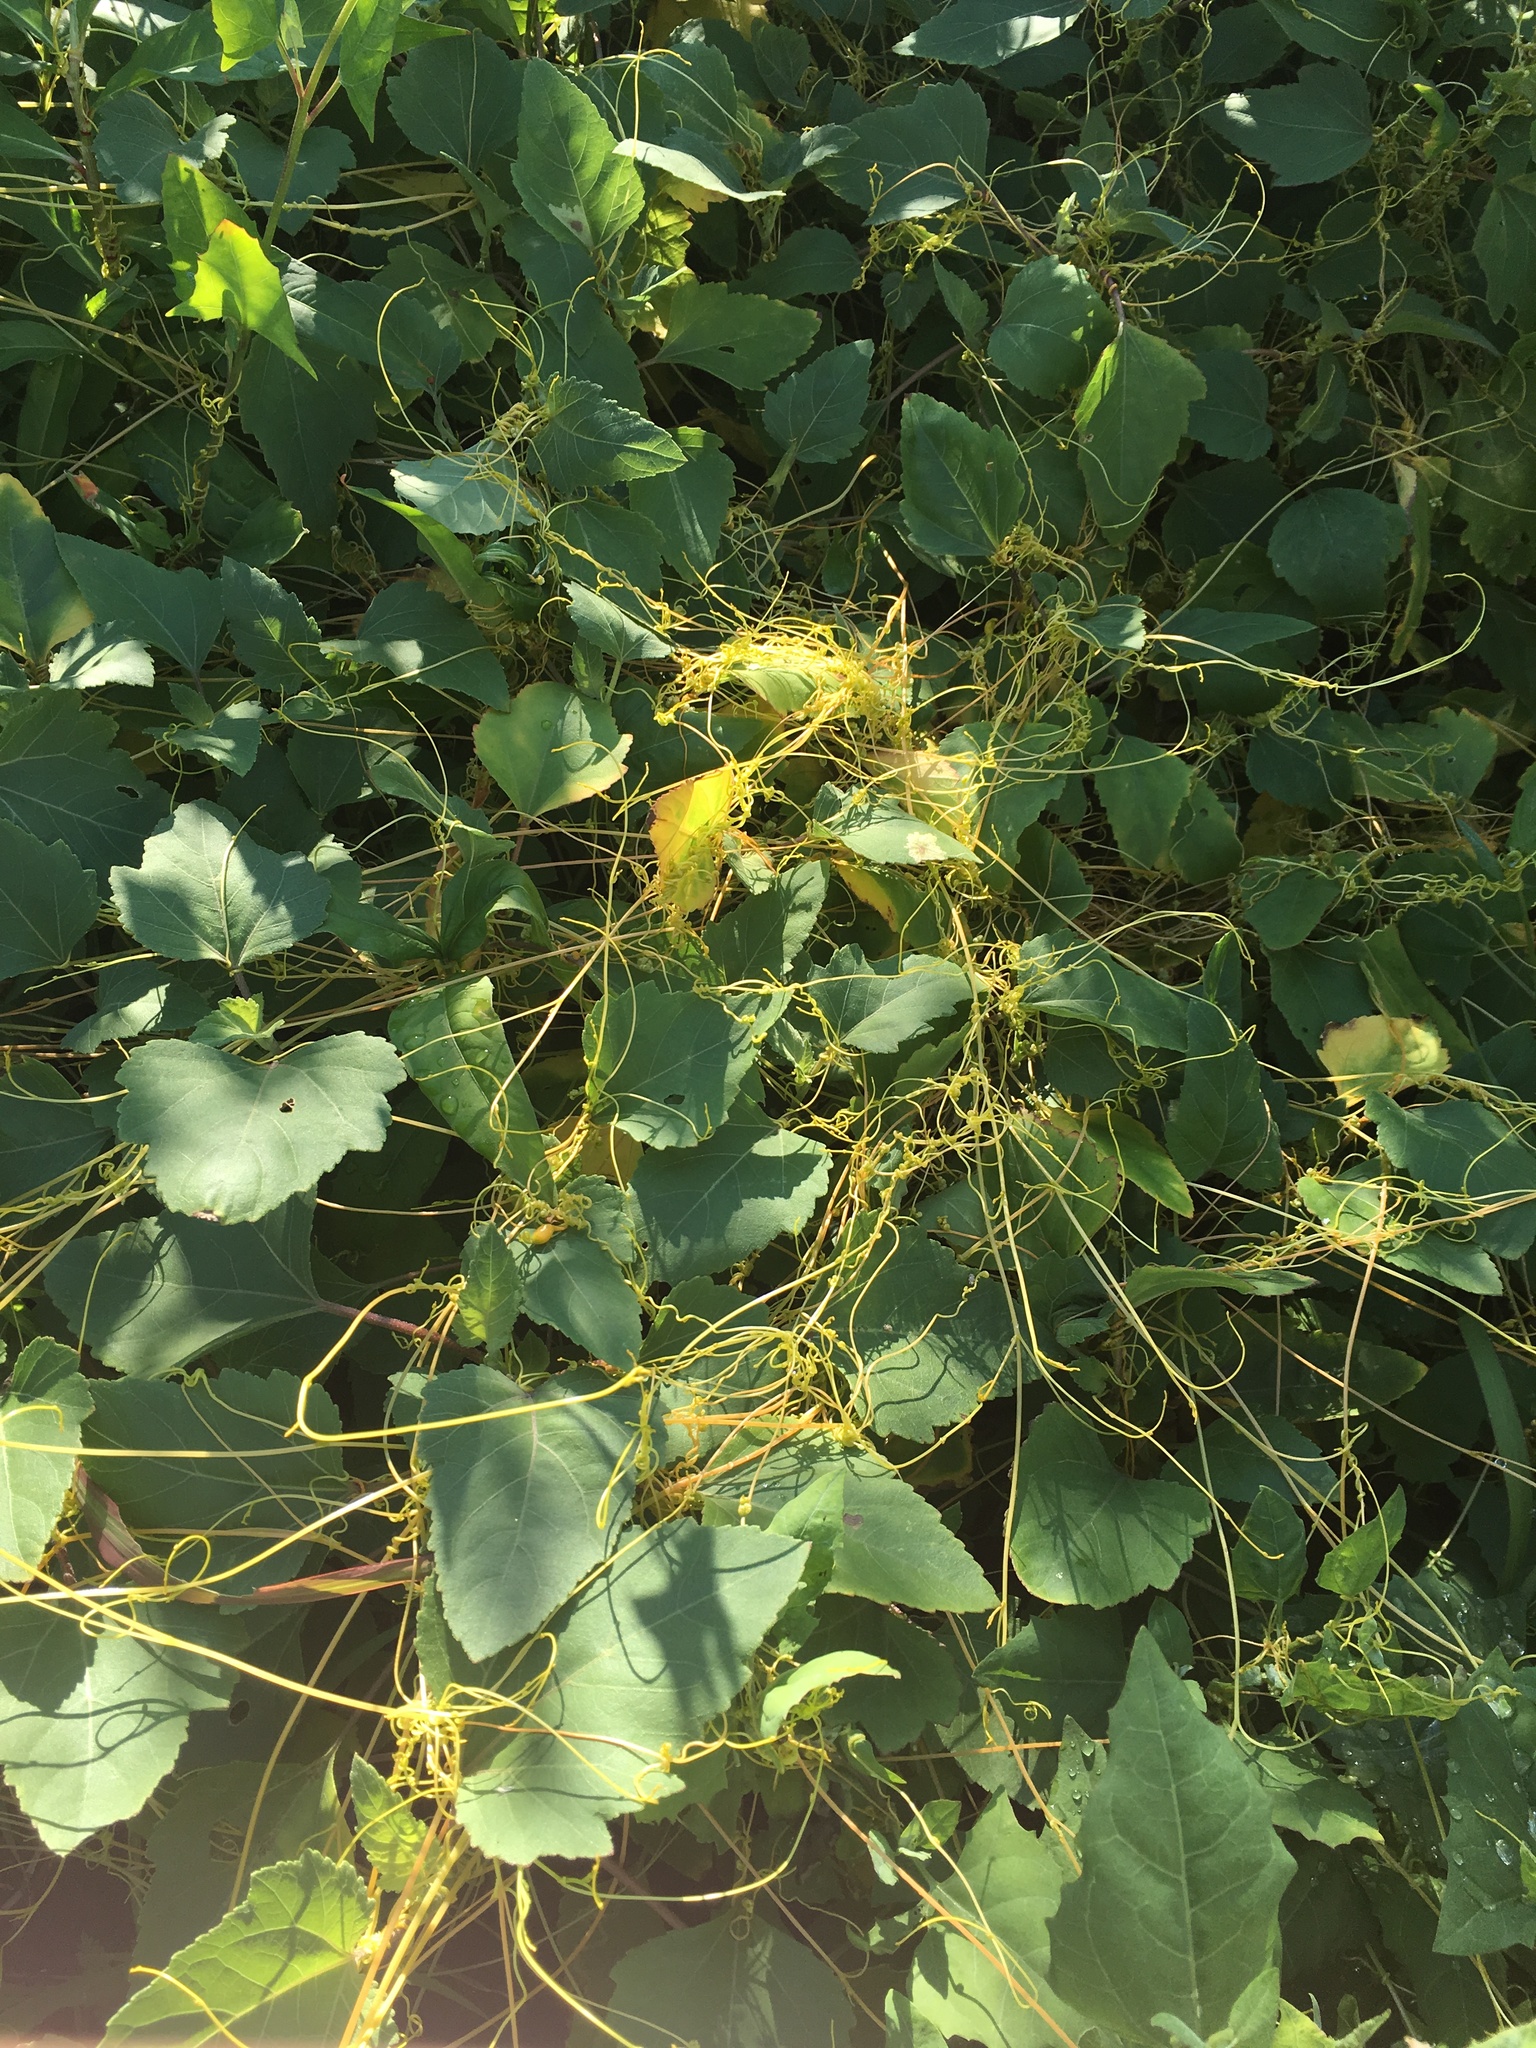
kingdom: Plantae
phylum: Tracheophyta
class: Magnoliopsida
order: Solanales
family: Convolvulaceae
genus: Cuscuta
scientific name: Cuscuta
